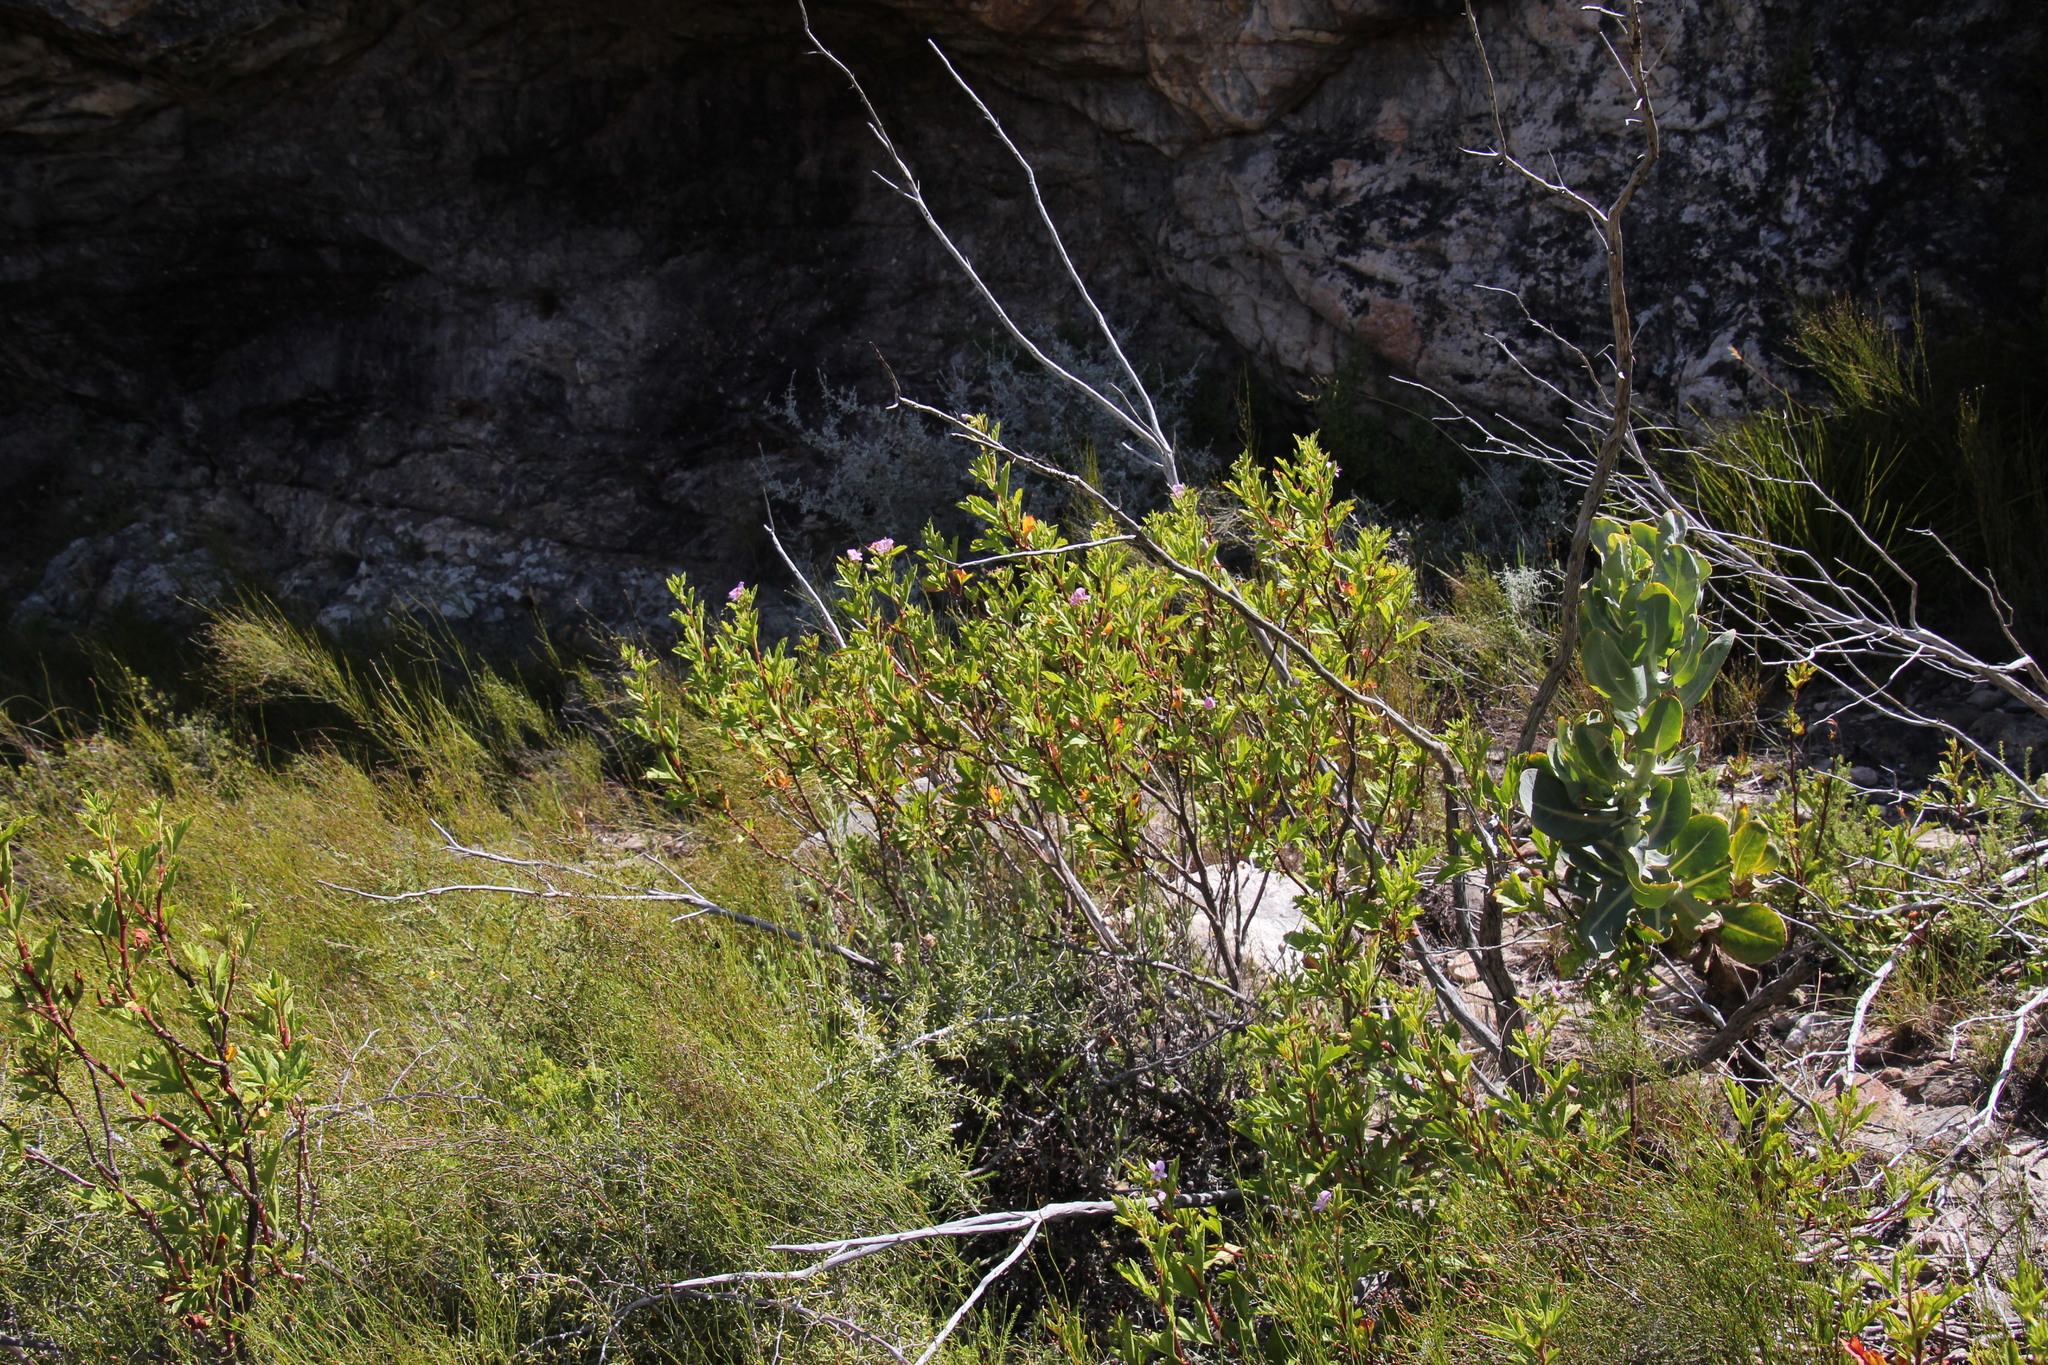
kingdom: Plantae
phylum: Tracheophyta
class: Magnoliopsida
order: Geraniales
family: Geraniaceae
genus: Pelargonium
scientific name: Pelargonium scabrum
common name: Apricot geranium
